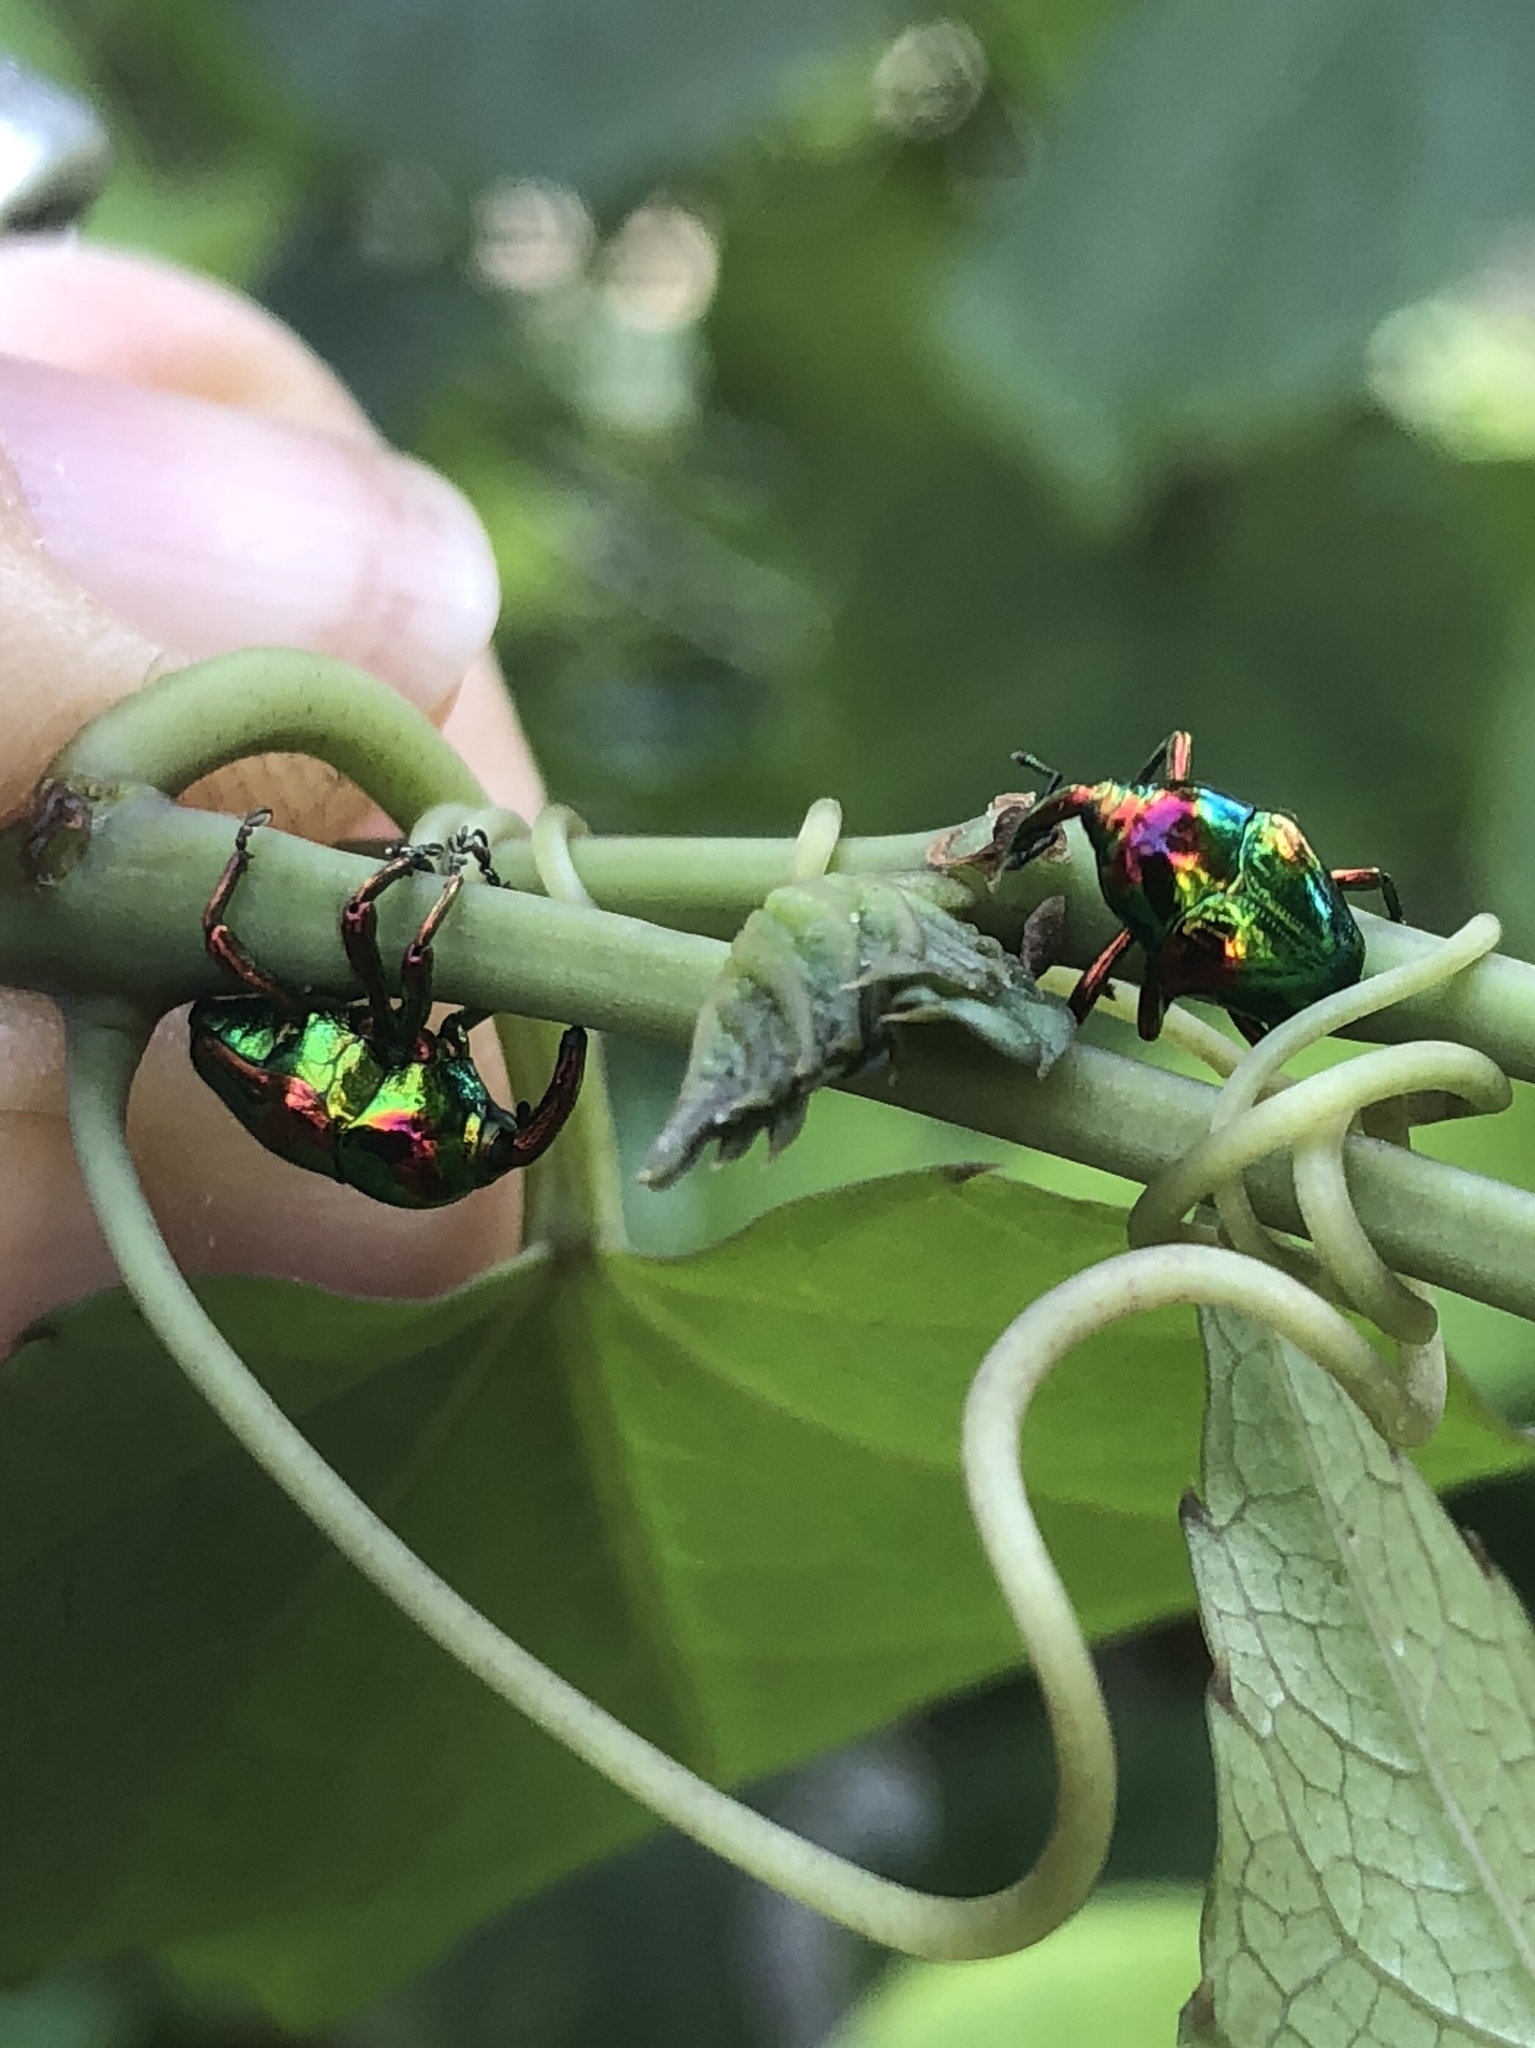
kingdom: Animalia
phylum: Arthropoda
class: Insecta
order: Coleoptera
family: Eurhynchidae
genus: Eurhinus
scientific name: Eurhinus magnificus
